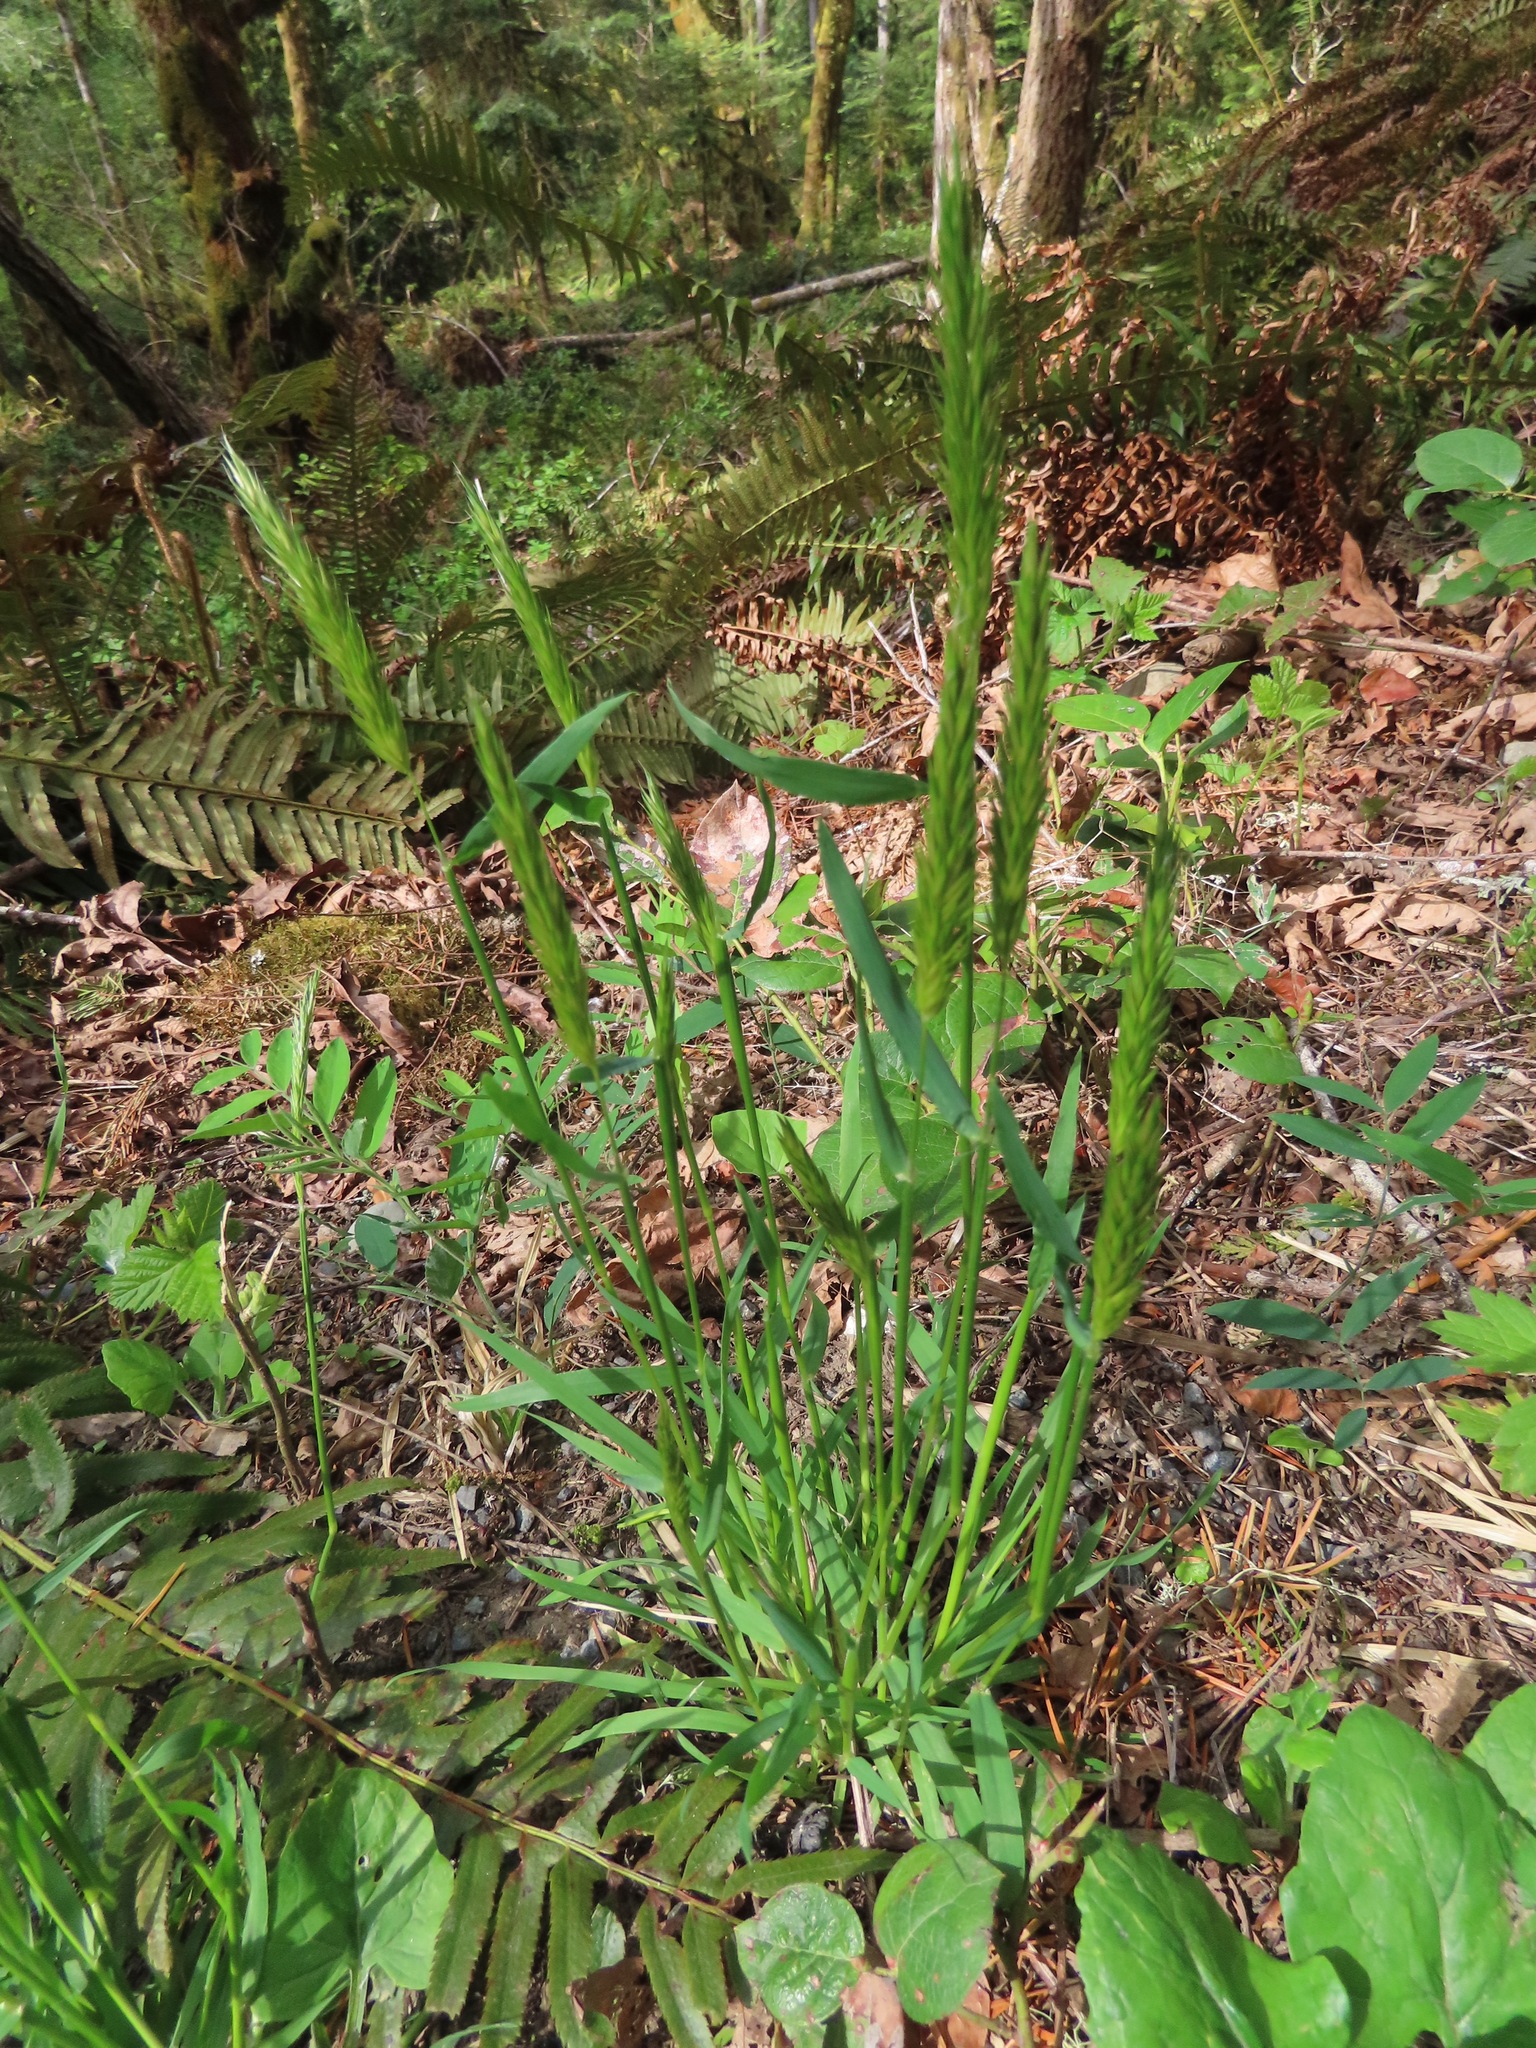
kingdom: Plantae
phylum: Tracheophyta
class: Liliopsida
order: Poales
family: Poaceae
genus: Anthoxanthum
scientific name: Anthoxanthum odoratum
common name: Sweet vernalgrass
